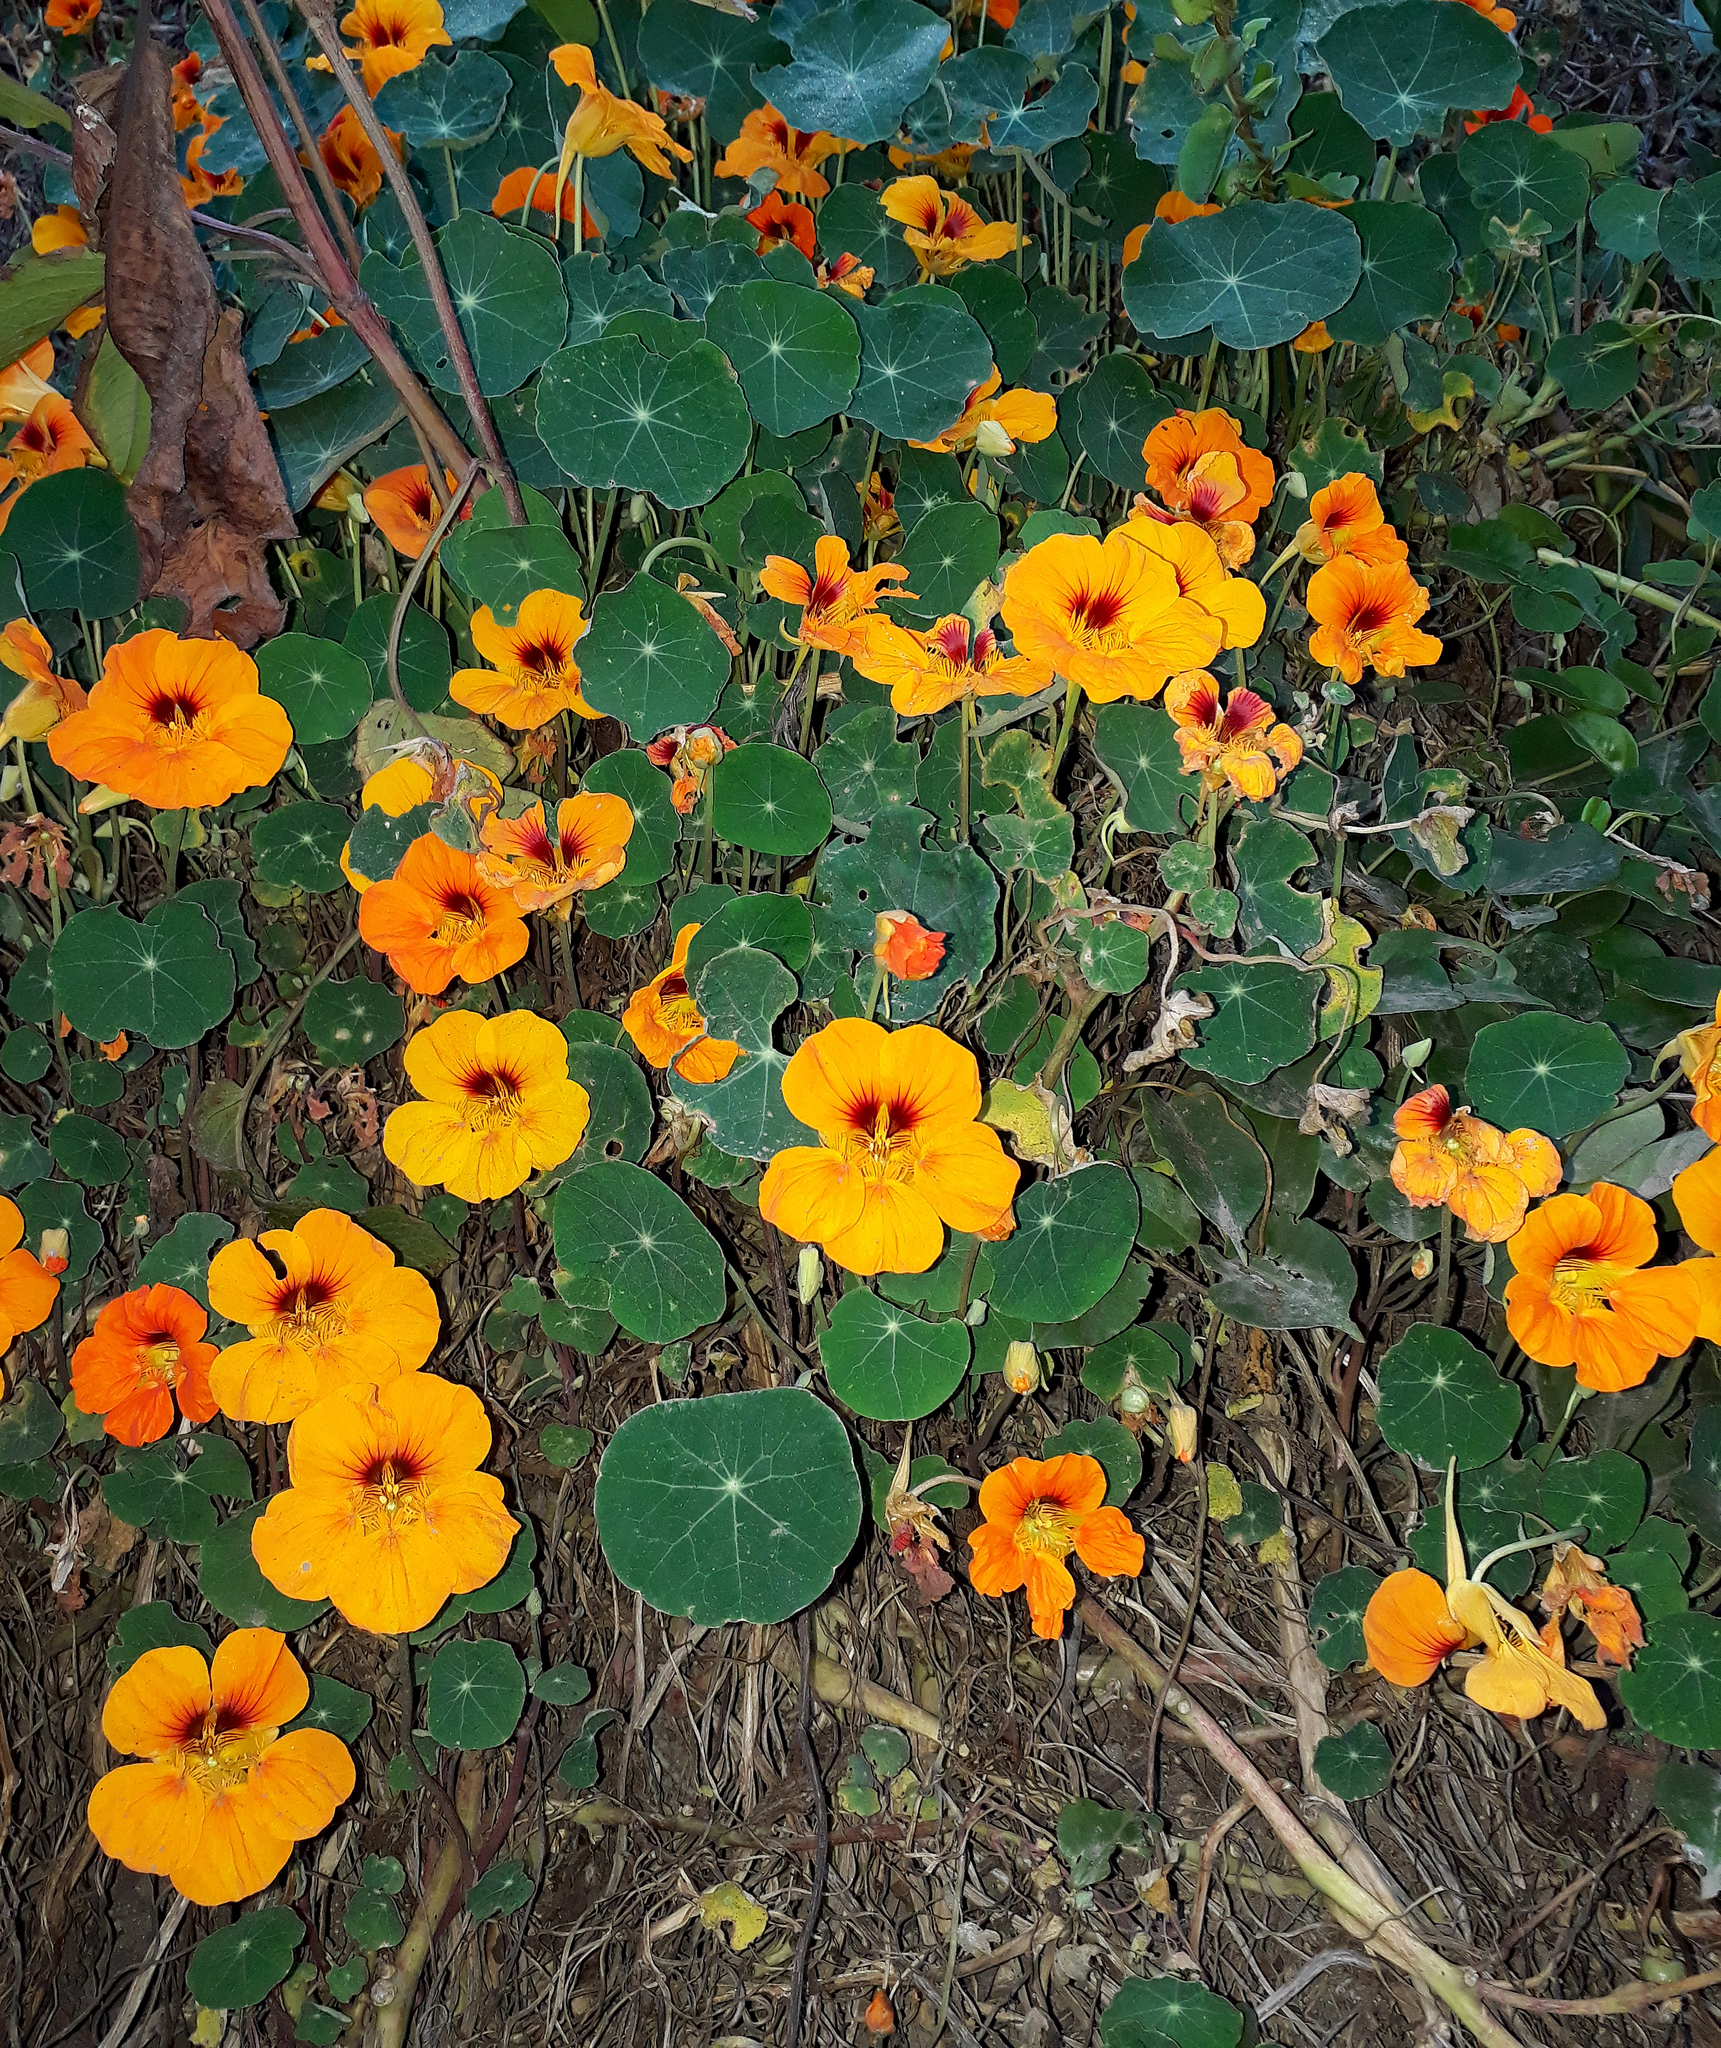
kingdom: Plantae
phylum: Tracheophyta
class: Magnoliopsida
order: Brassicales
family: Tropaeolaceae
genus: Tropaeolum
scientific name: Tropaeolum majus
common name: Nasturtium
